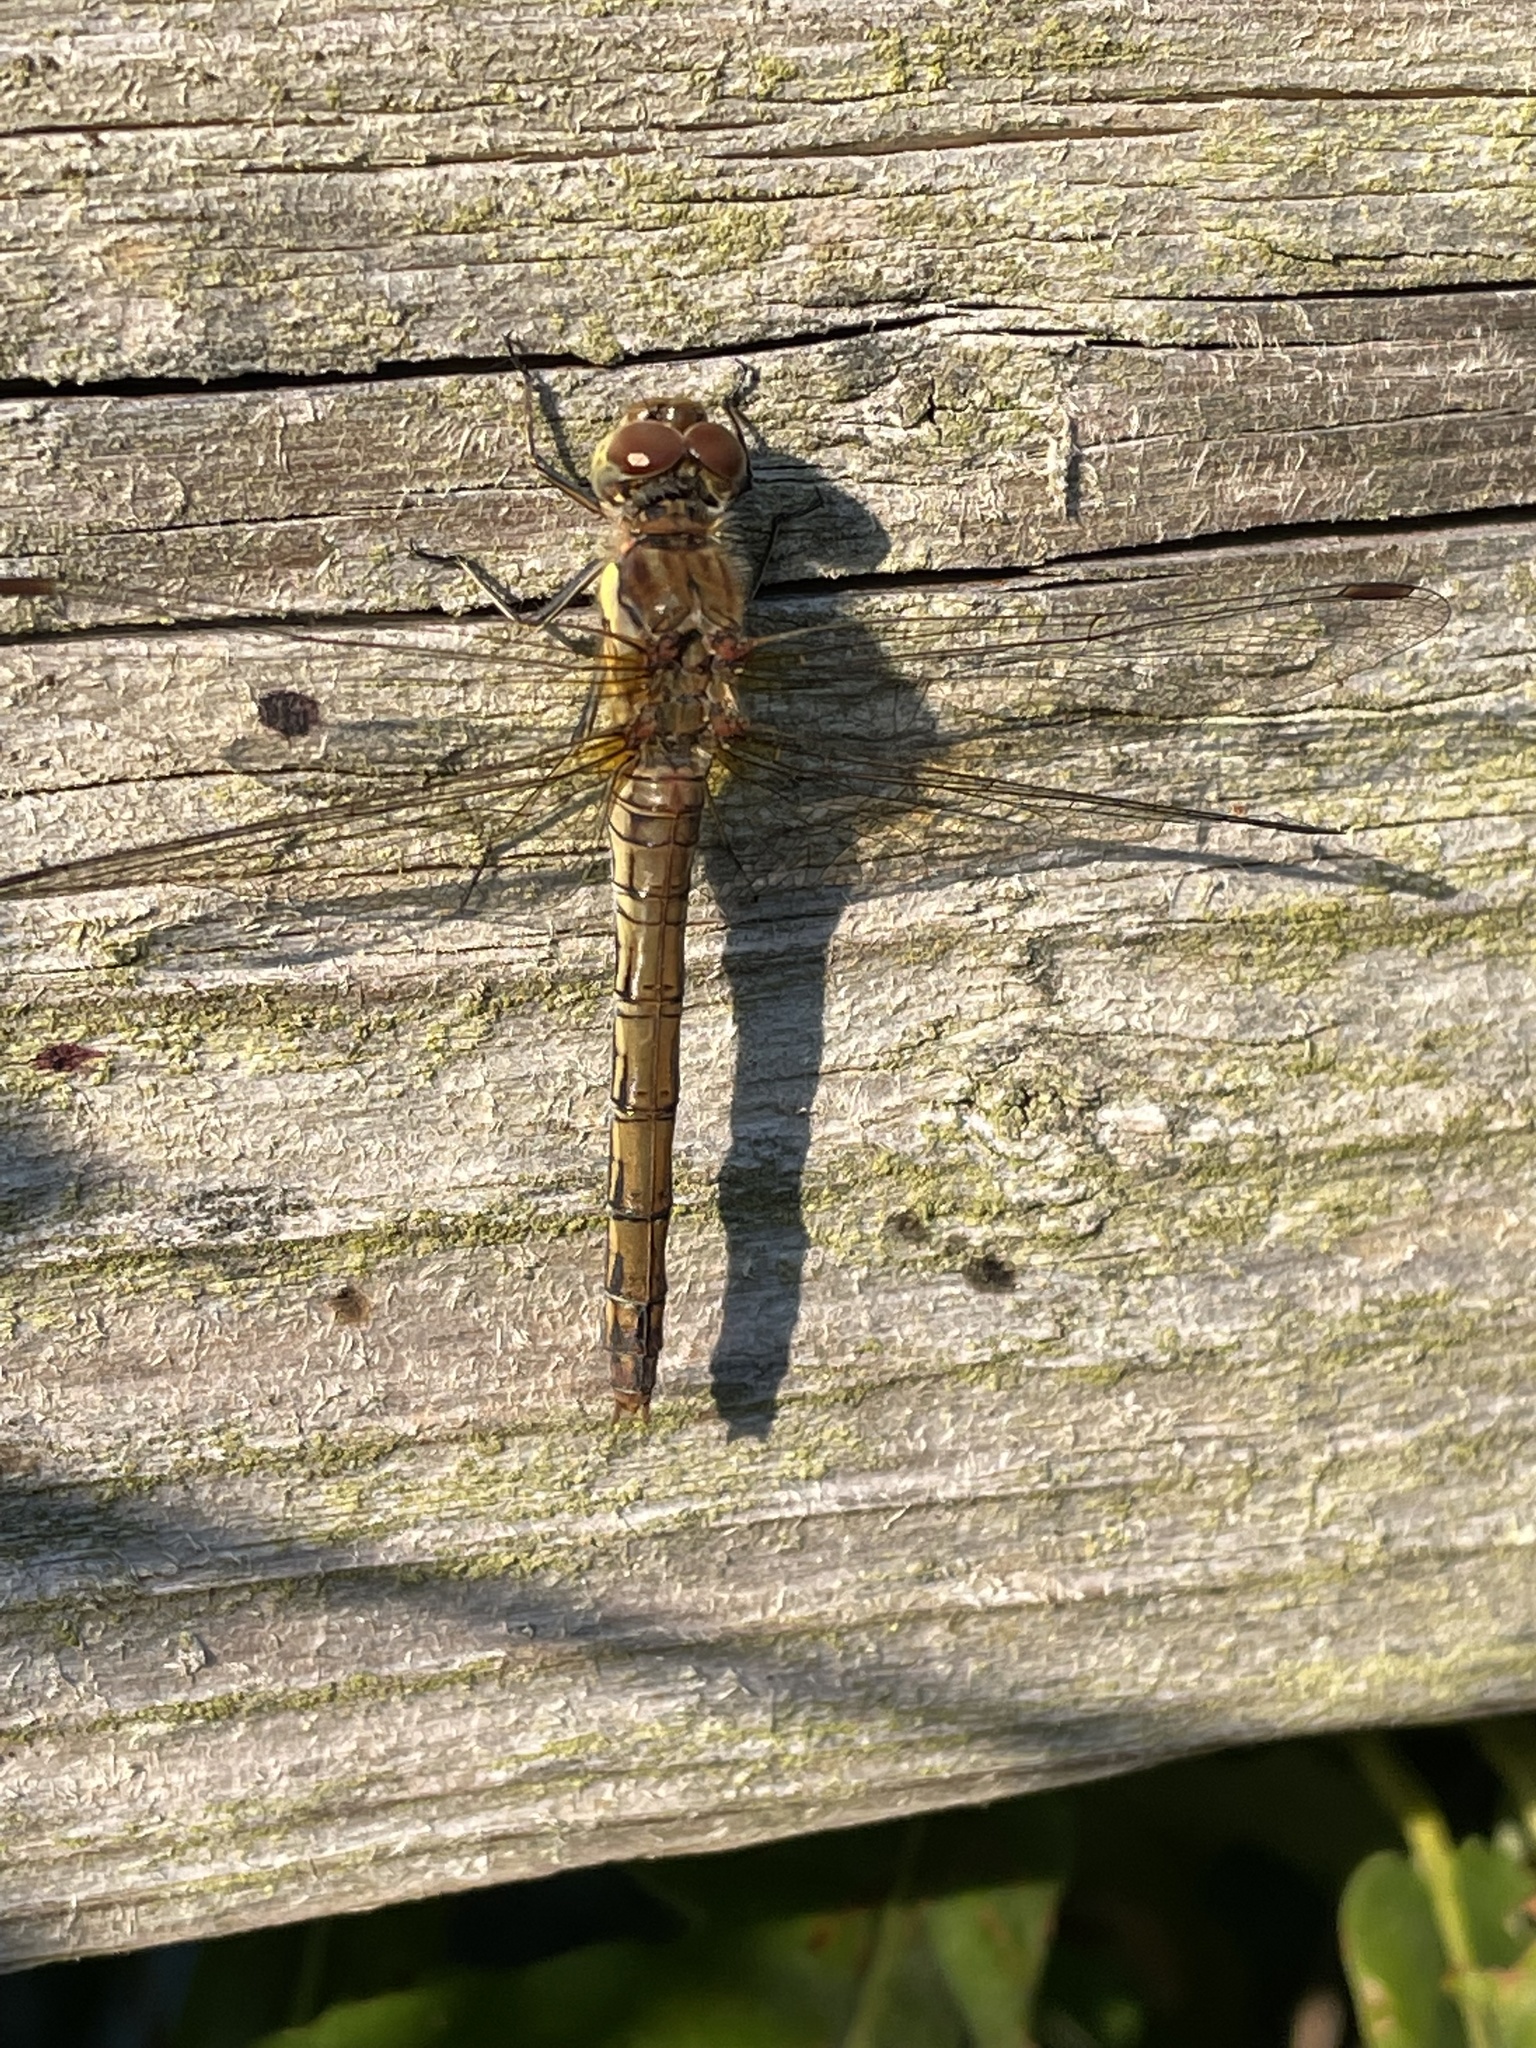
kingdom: Animalia
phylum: Arthropoda
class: Insecta
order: Odonata
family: Libellulidae
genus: Sympetrum
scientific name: Sympetrum striolatum
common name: Common darter
